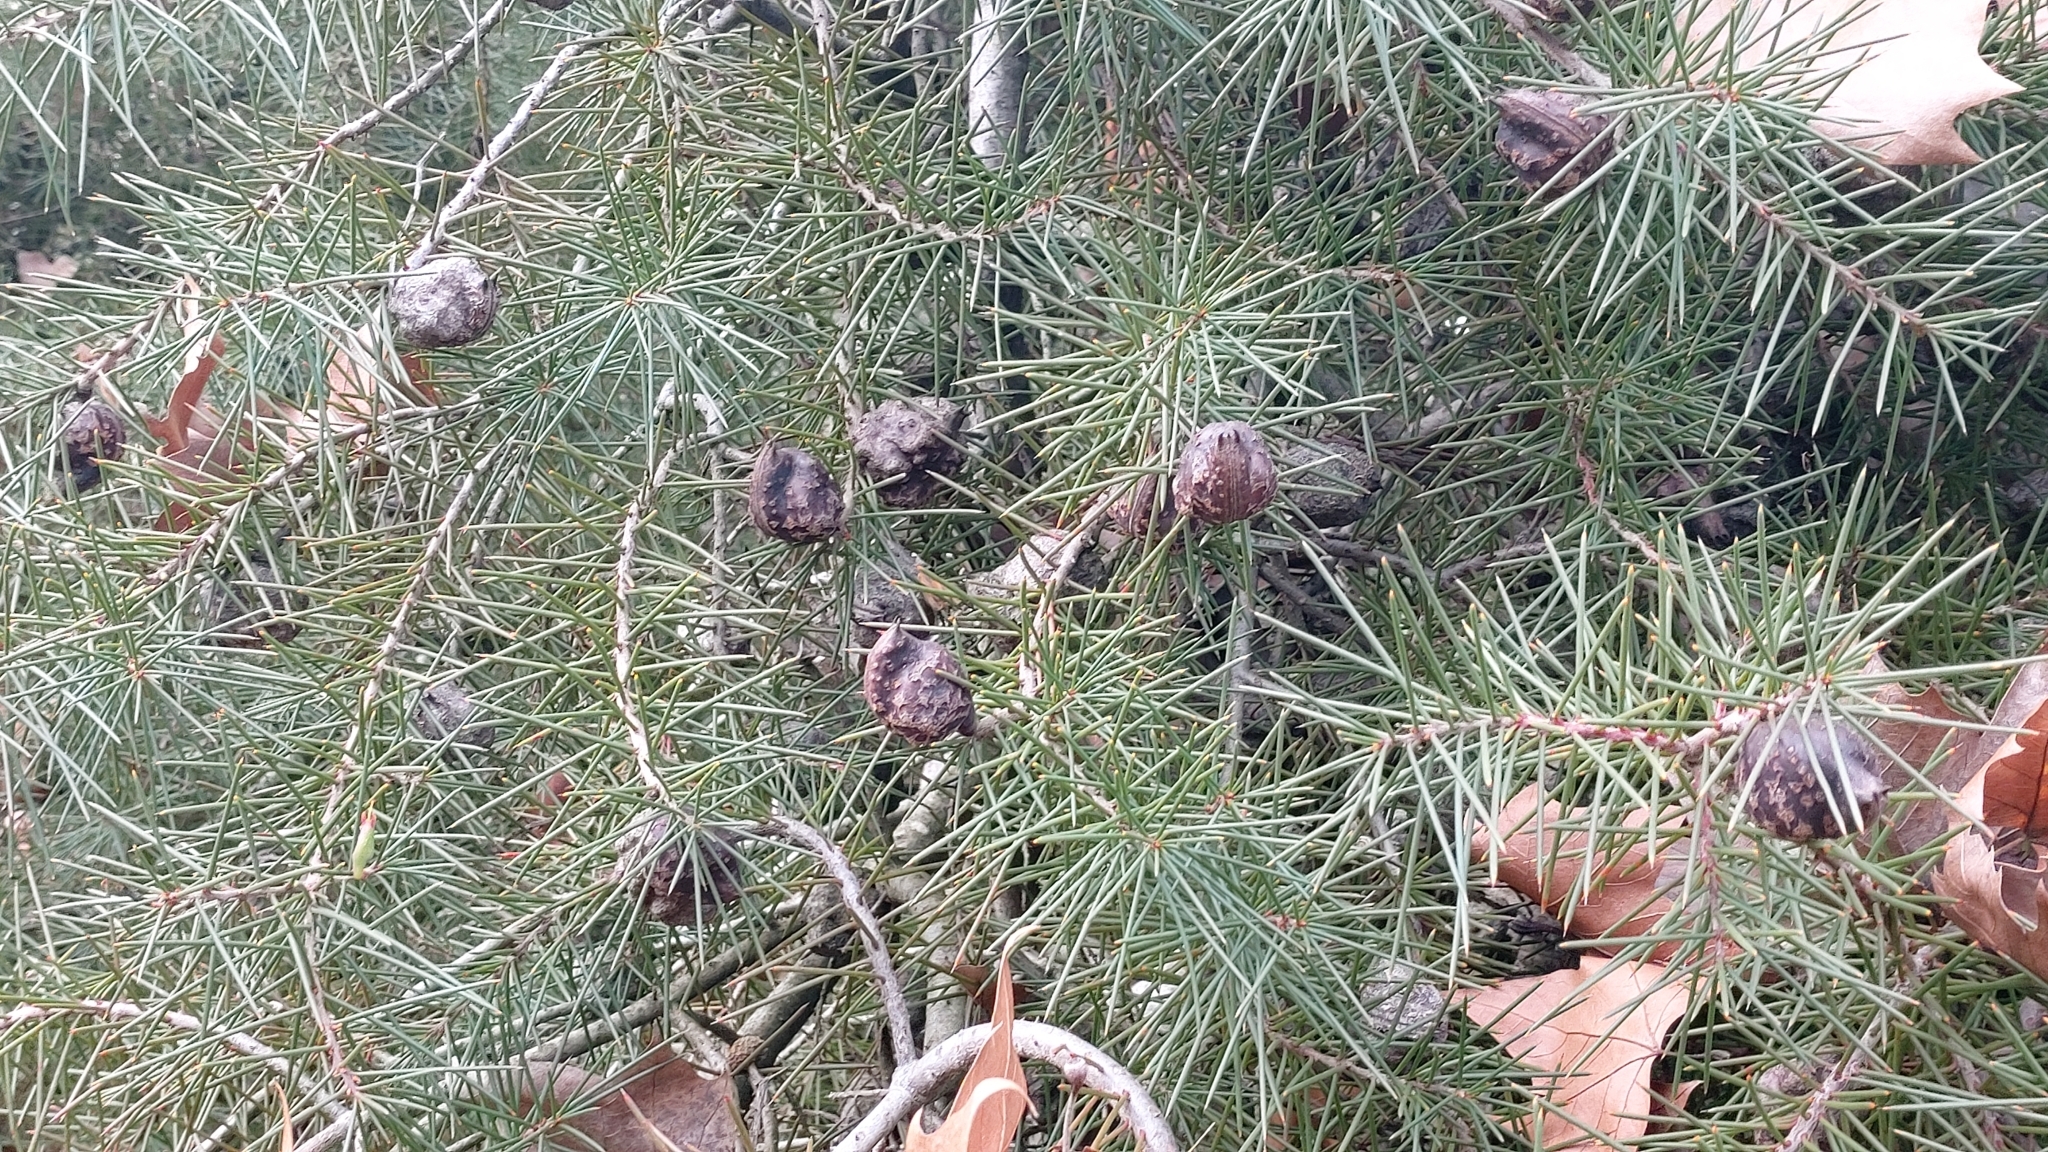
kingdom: Plantae
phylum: Tracheophyta
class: Magnoliopsida
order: Proteales
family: Proteaceae
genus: Hakea
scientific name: Hakea decurrens
